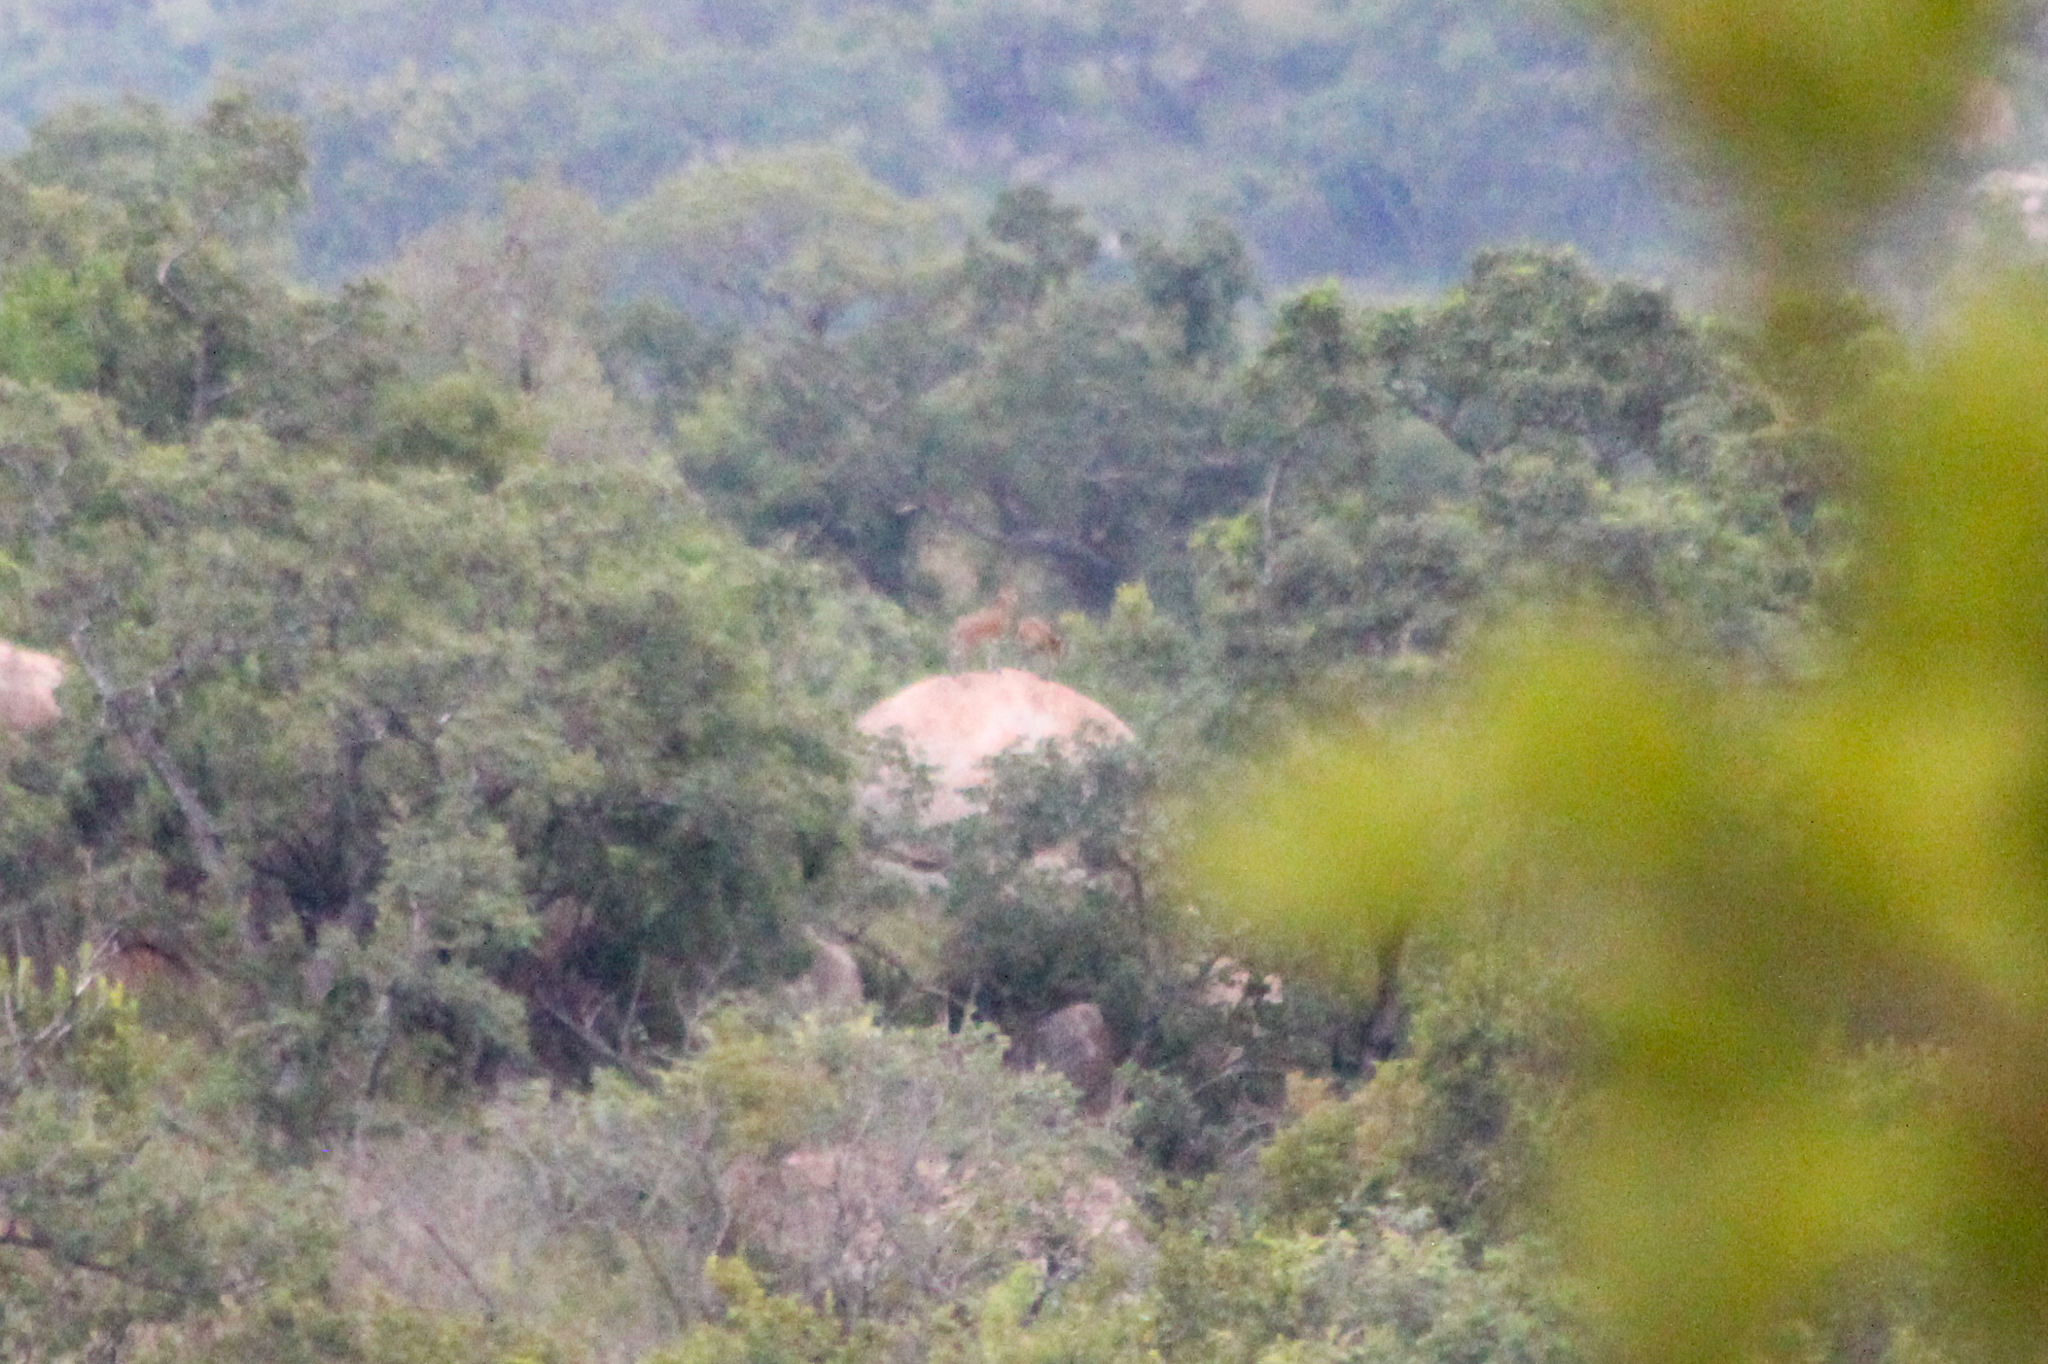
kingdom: Animalia
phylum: Chordata
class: Mammalia
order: Artiodactyla
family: Bovidae
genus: Oreotragus
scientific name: Oreotragus oreotragus
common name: Klipspringer
